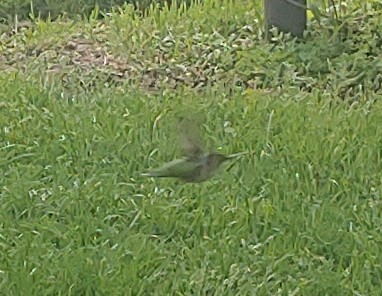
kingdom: Animalia
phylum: Chordata
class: Aves
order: Apodiformes
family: Trochilidae
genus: Archilochus
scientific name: Archilochus colubris
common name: Ruby-throated hummingbird
